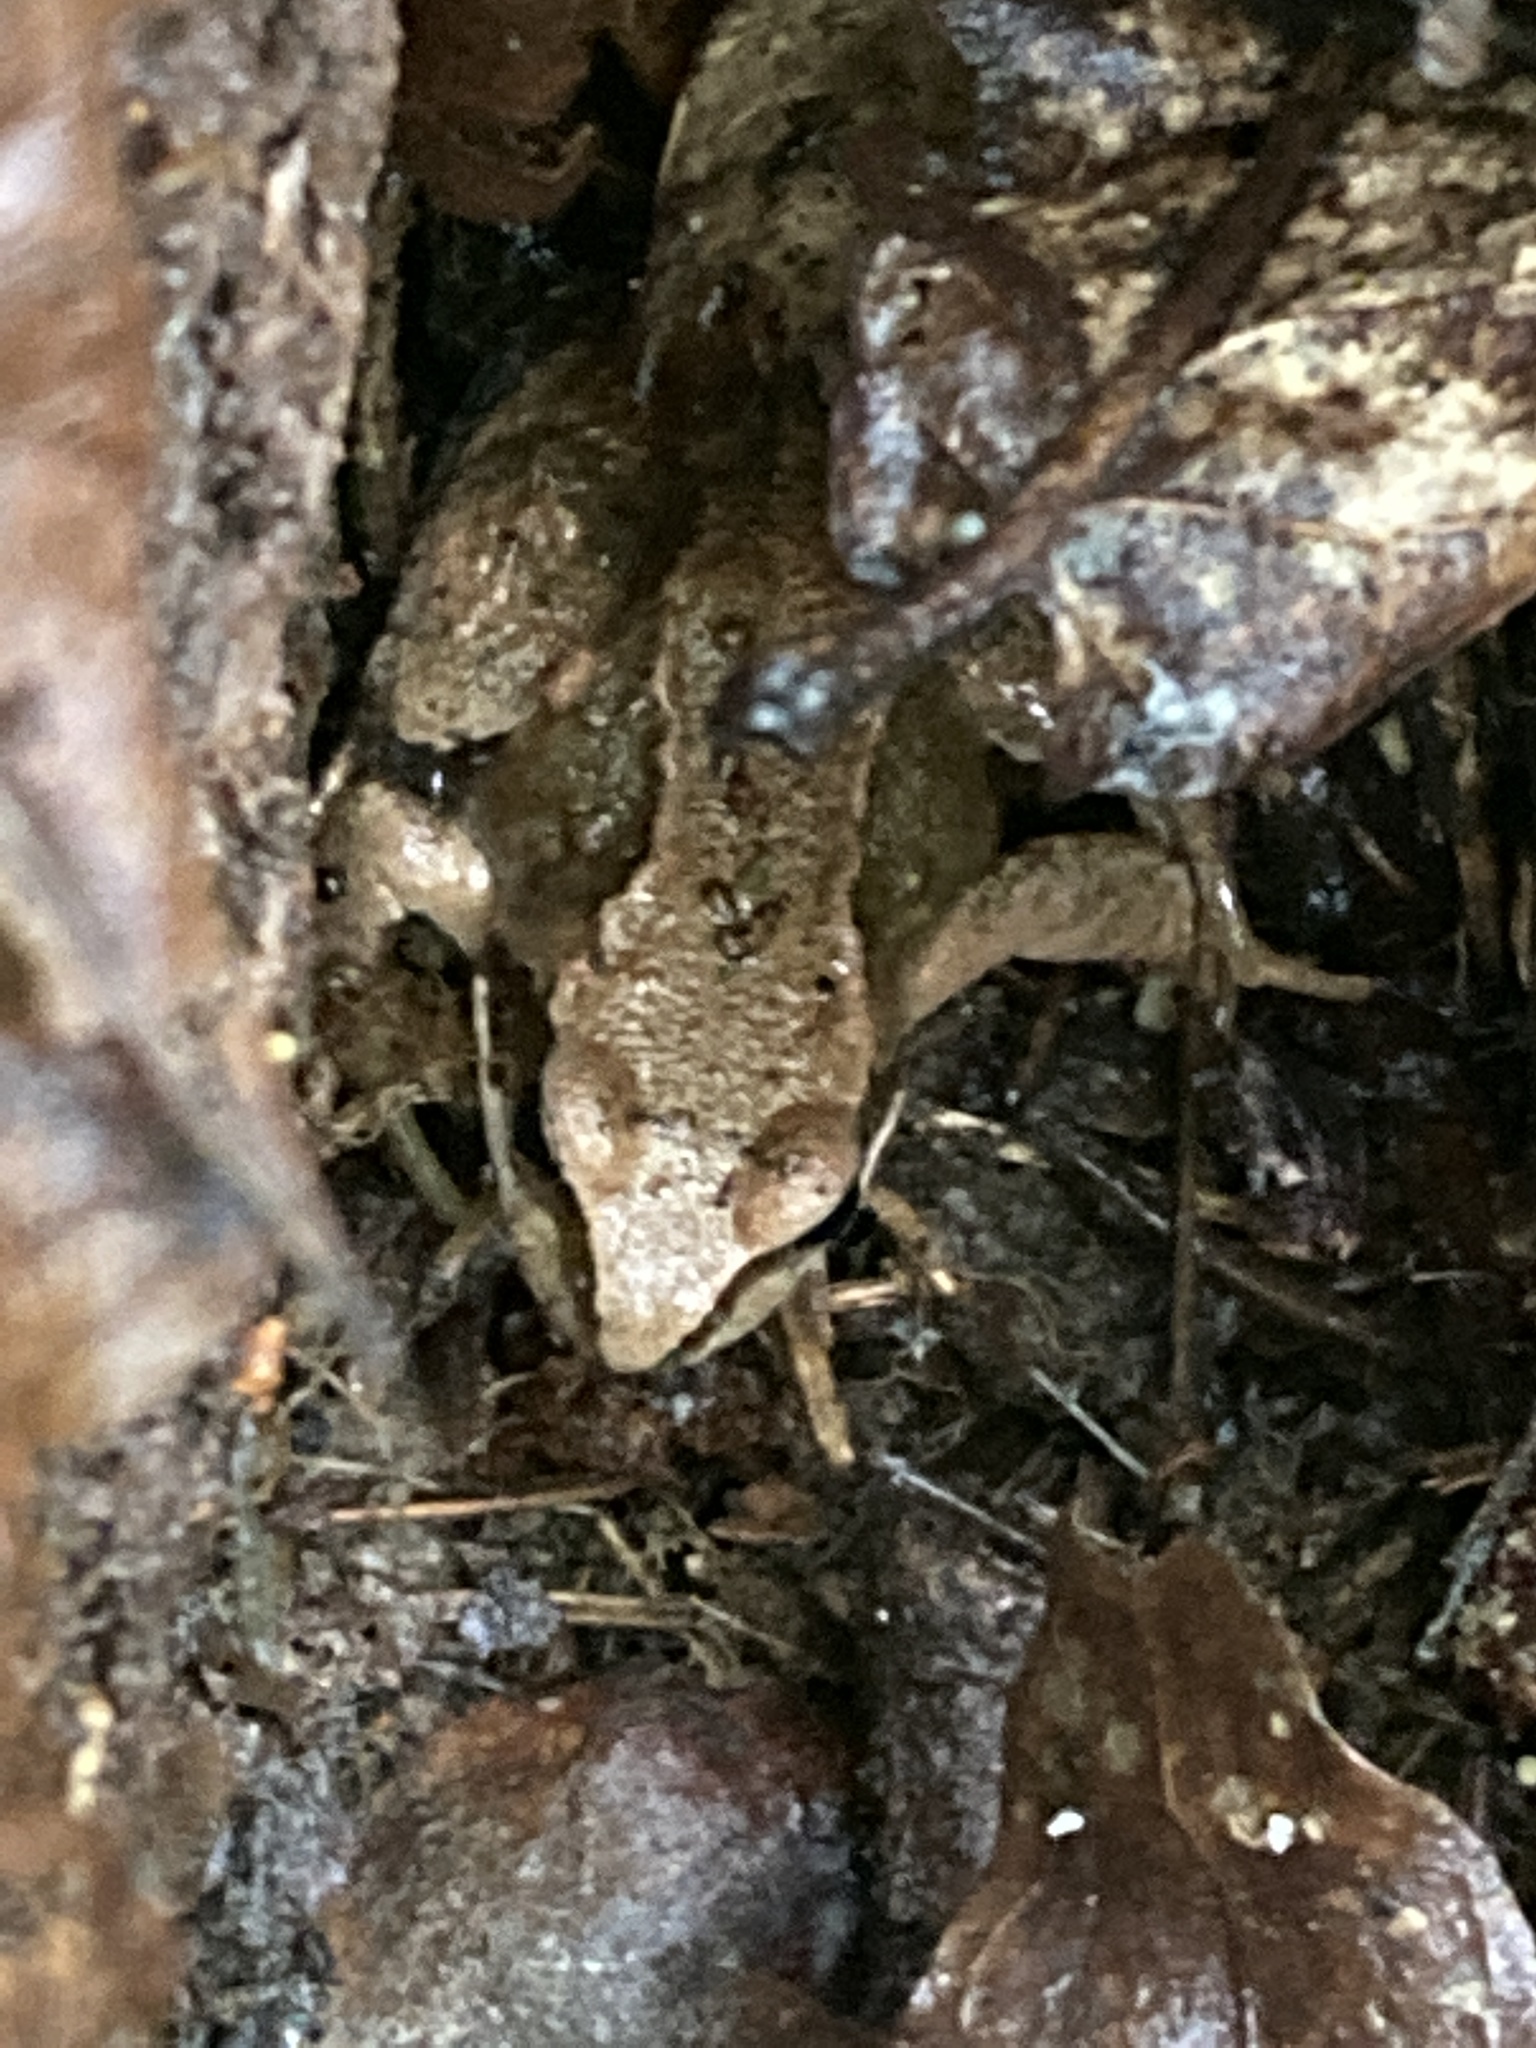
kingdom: Animalia
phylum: Chordata
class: Amphibia
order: Anura
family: Ranidae
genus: Rana
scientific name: Rana temporaria
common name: Common frog
